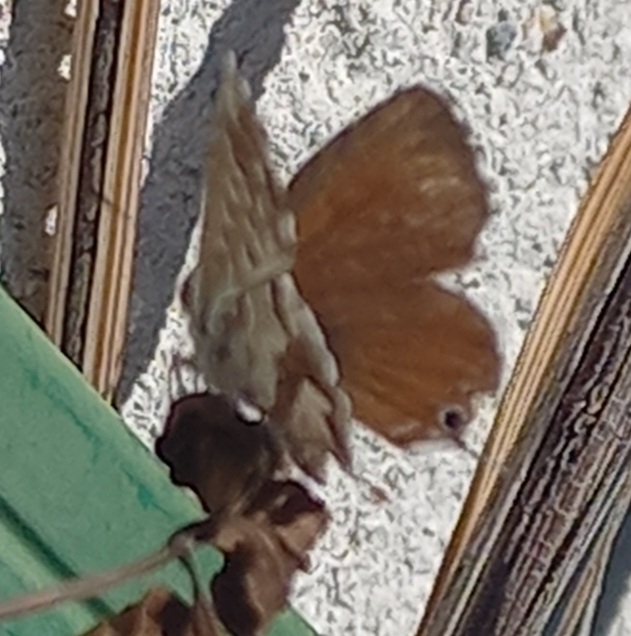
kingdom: Animalia
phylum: Arthropoda
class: Insecta
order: Lepidoptera
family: Lycaenidae
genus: Cacyreus
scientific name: Cacyreus marshalli
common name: Geranium bronze
